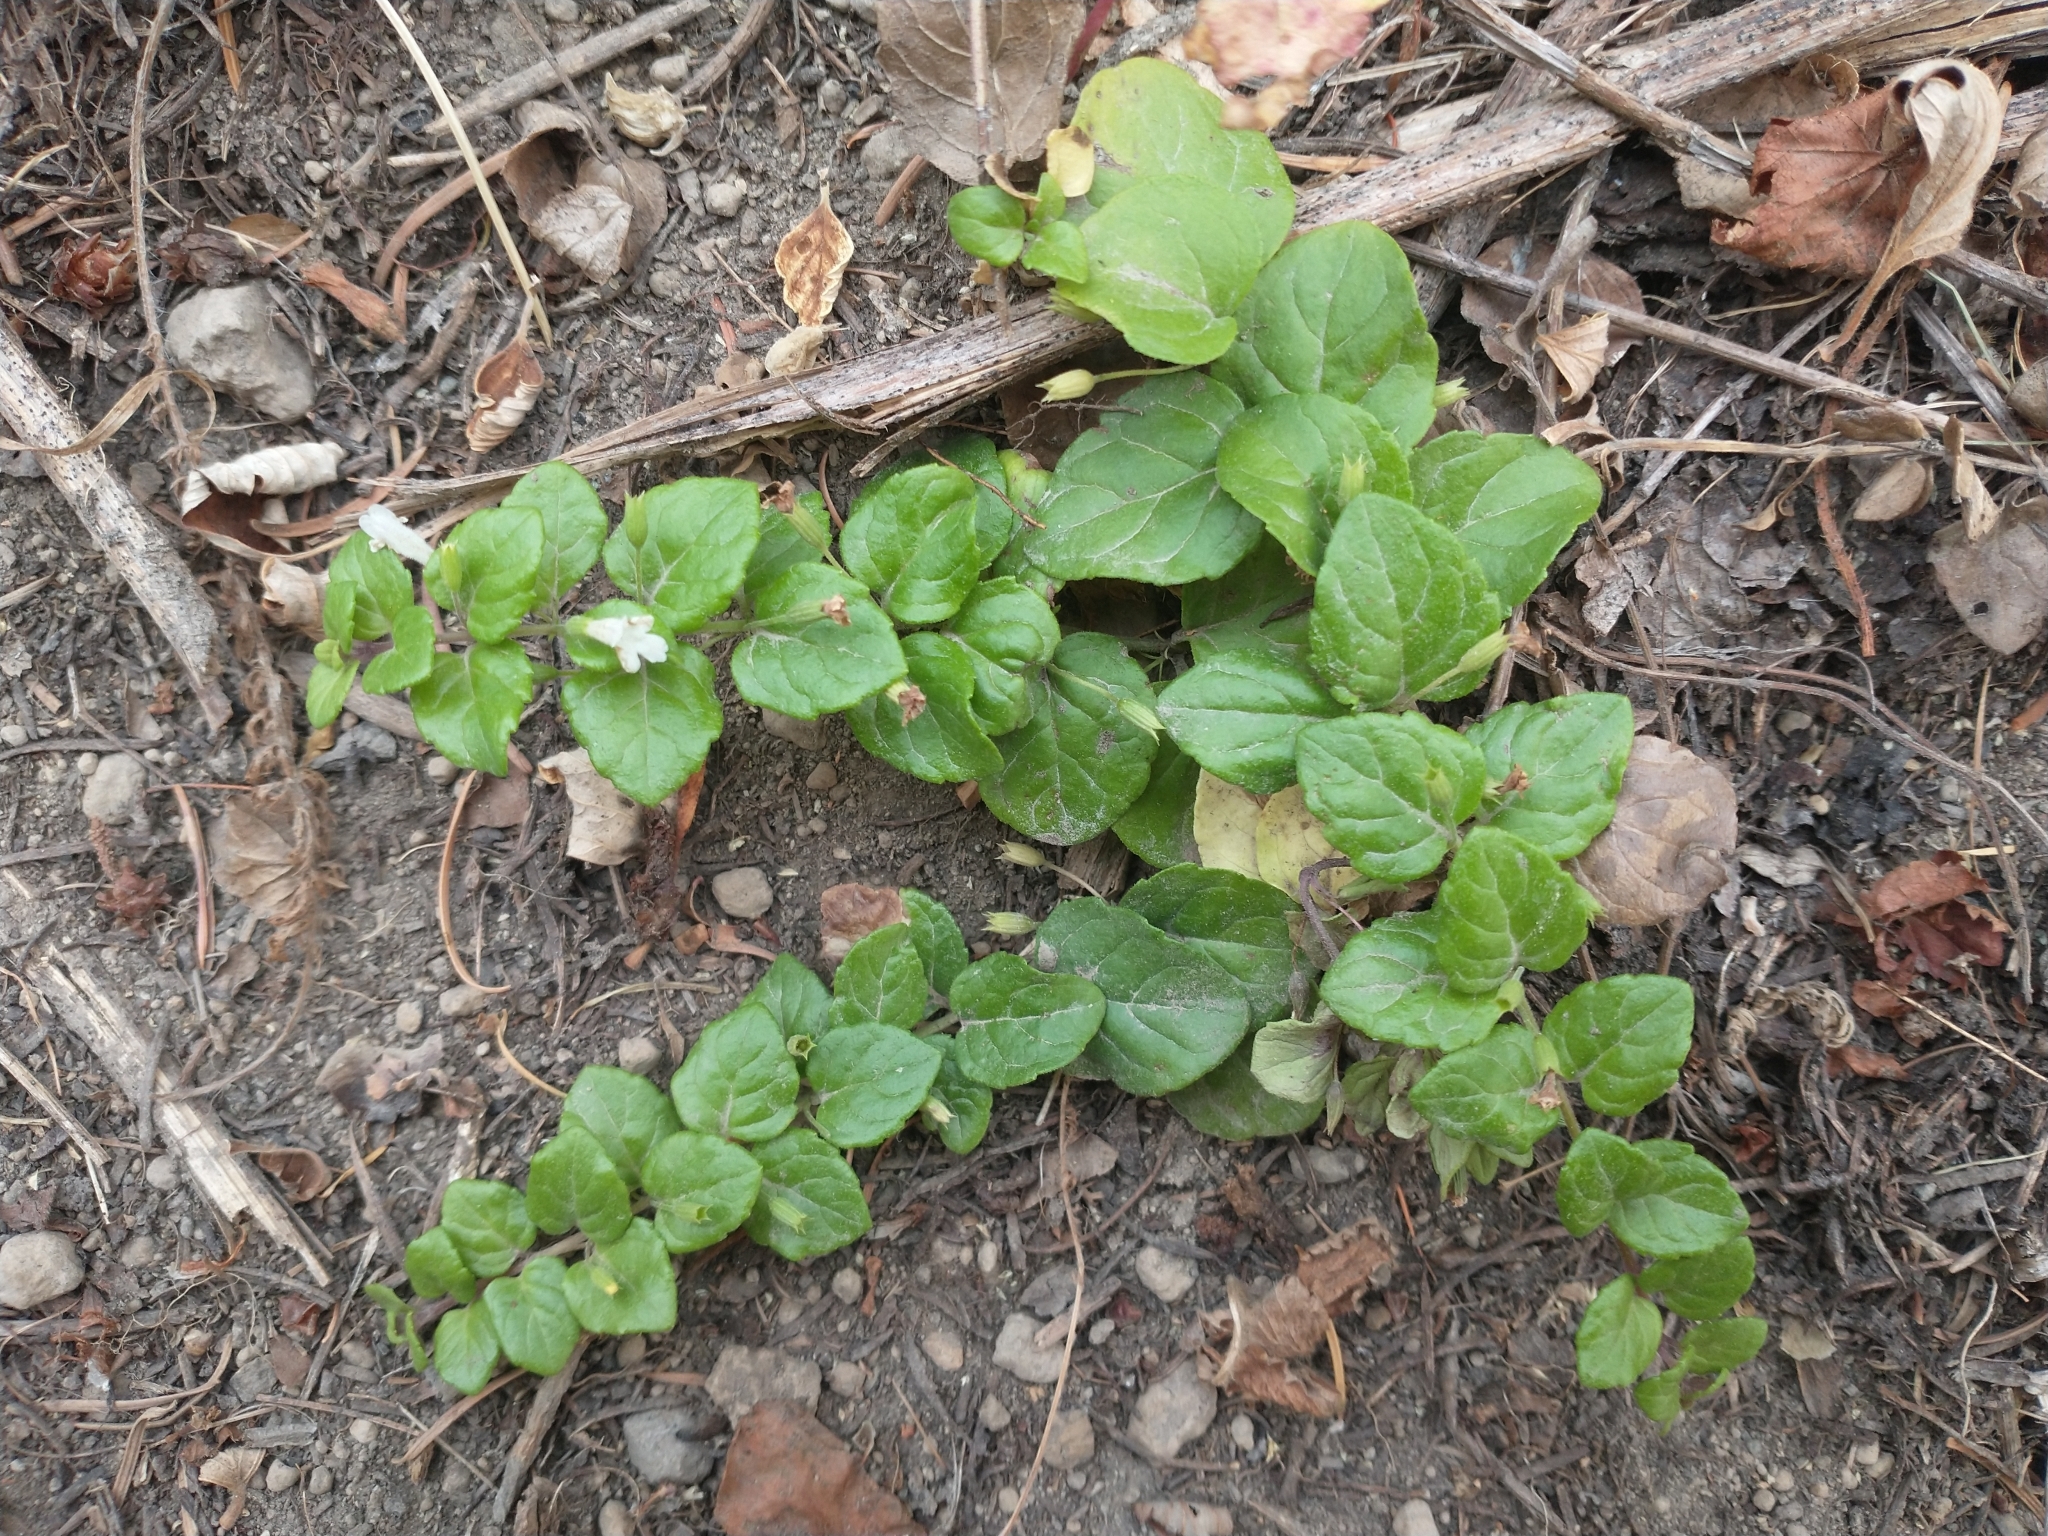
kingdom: Plantae
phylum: Tracheophyta
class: Magnoliopsida
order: Lamiales
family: Lamiaceae
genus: Micromeria
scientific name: Micromeria douglasii
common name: Yerba buena
